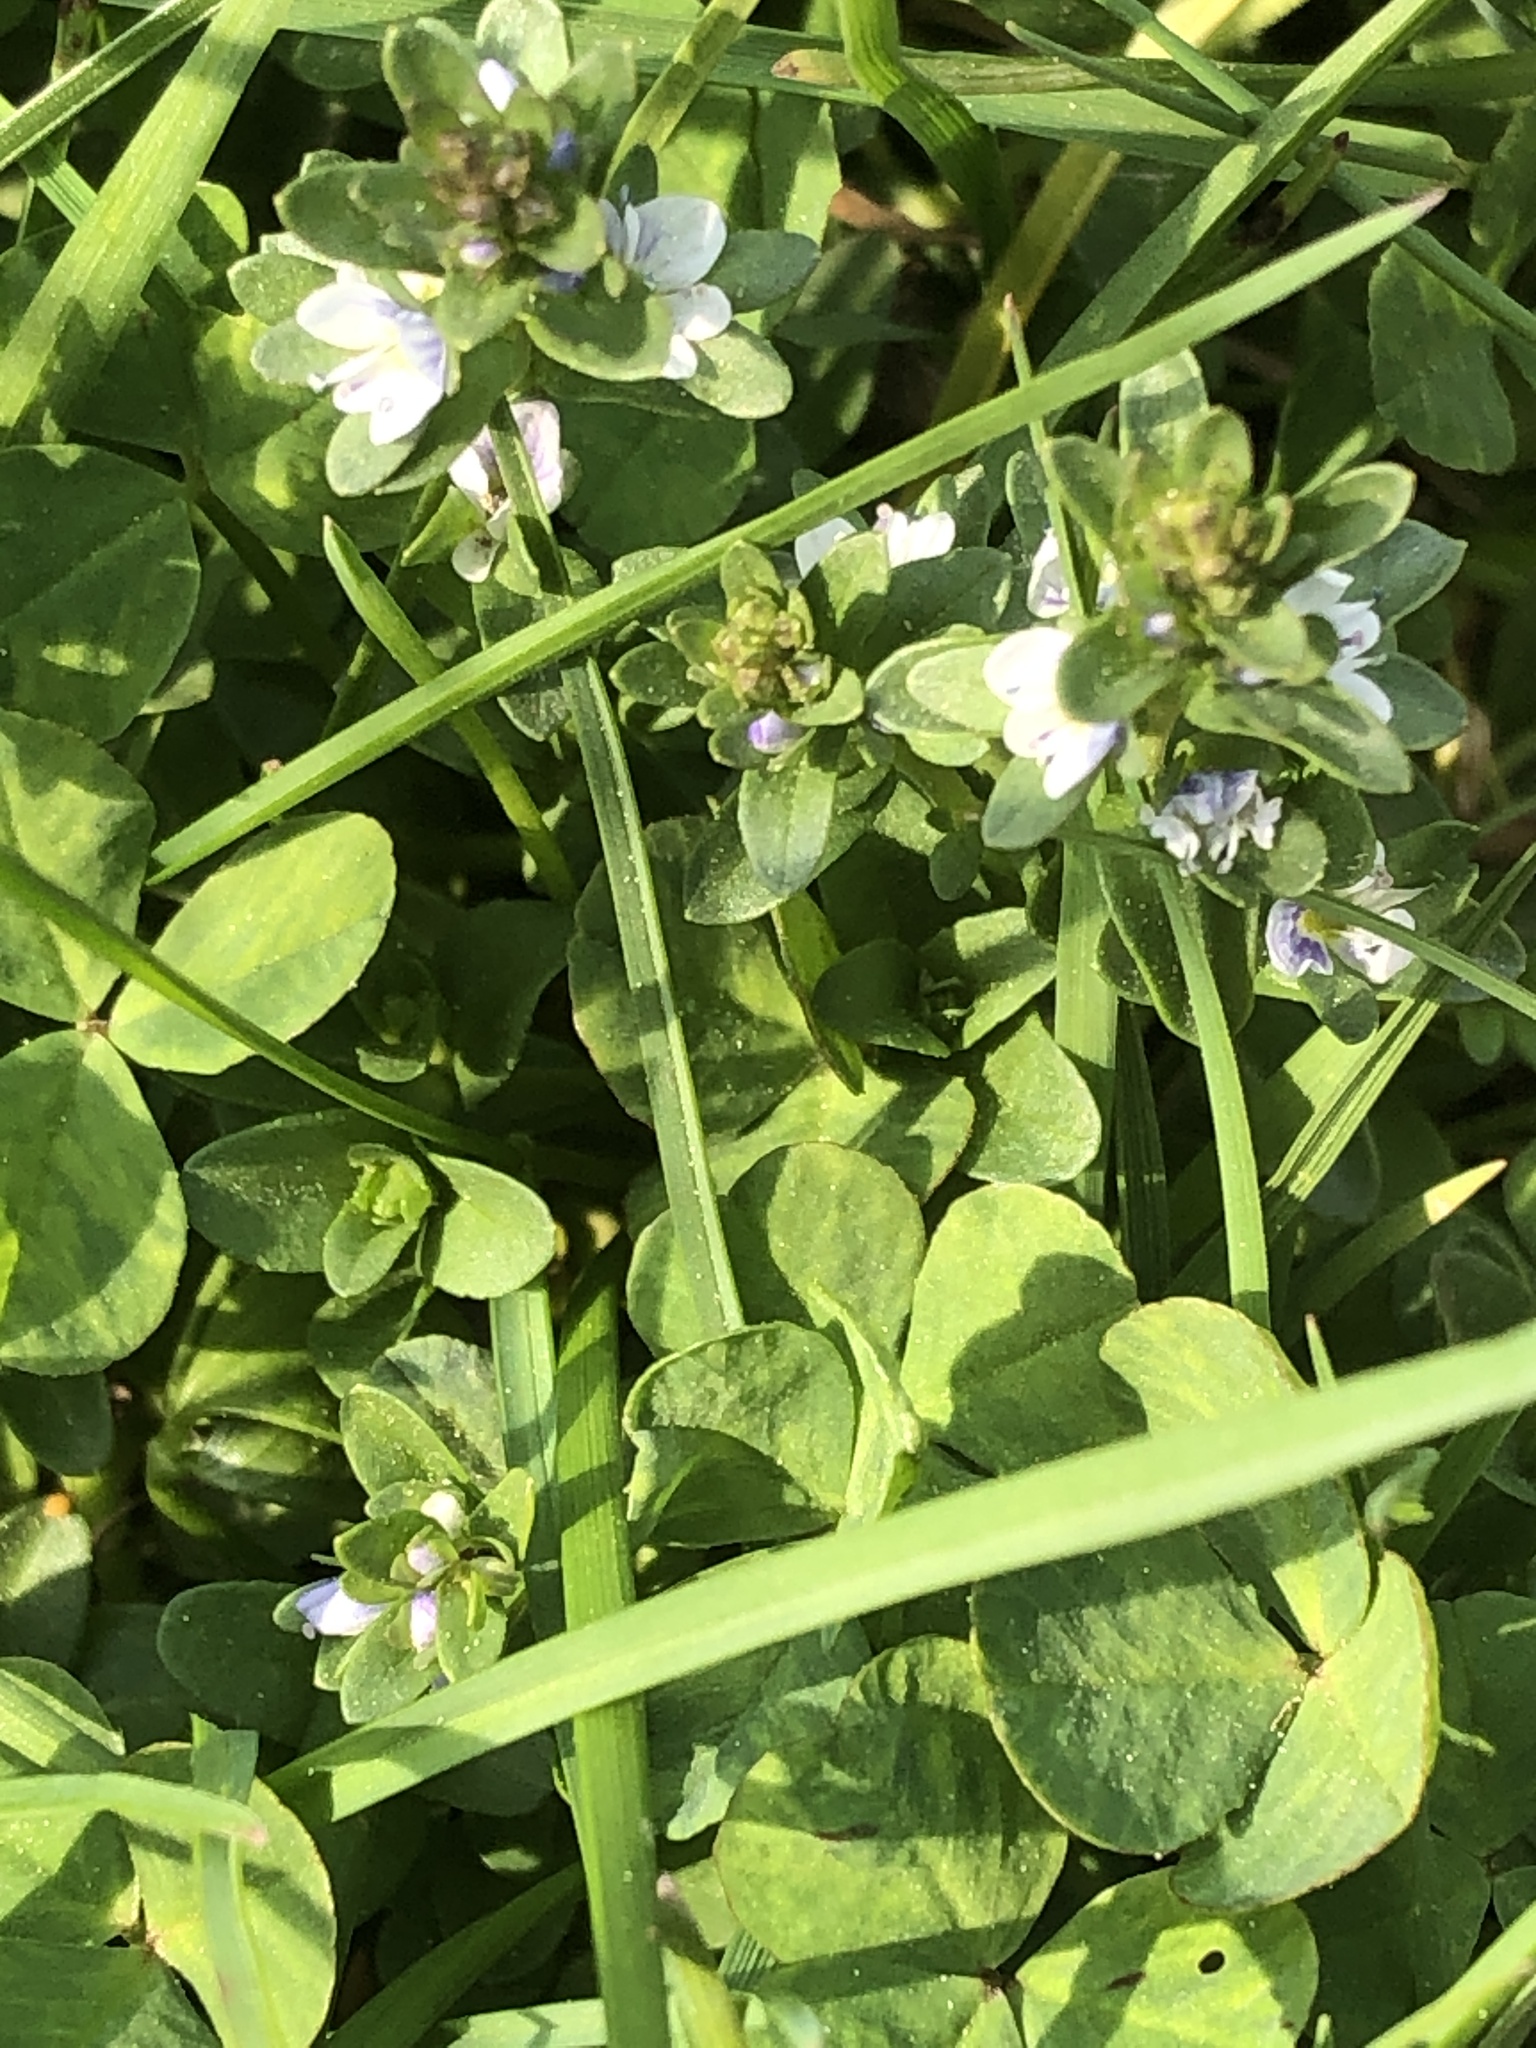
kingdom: Plantae
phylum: Tracheophyta
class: Magnoliopsida
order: Lamiales
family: Plantaginaceae
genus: Veronica
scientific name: Veronica serpyllifolia
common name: Thyme-leaved speedwell
